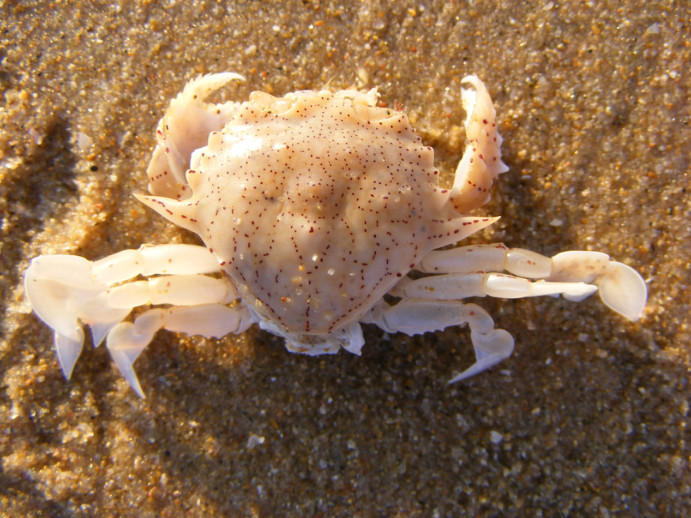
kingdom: Animalia
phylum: Arthropoda
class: Malacostraca
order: Decapoda
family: Matutidae
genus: Ashtoret
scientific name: Ashtoret lunaris
